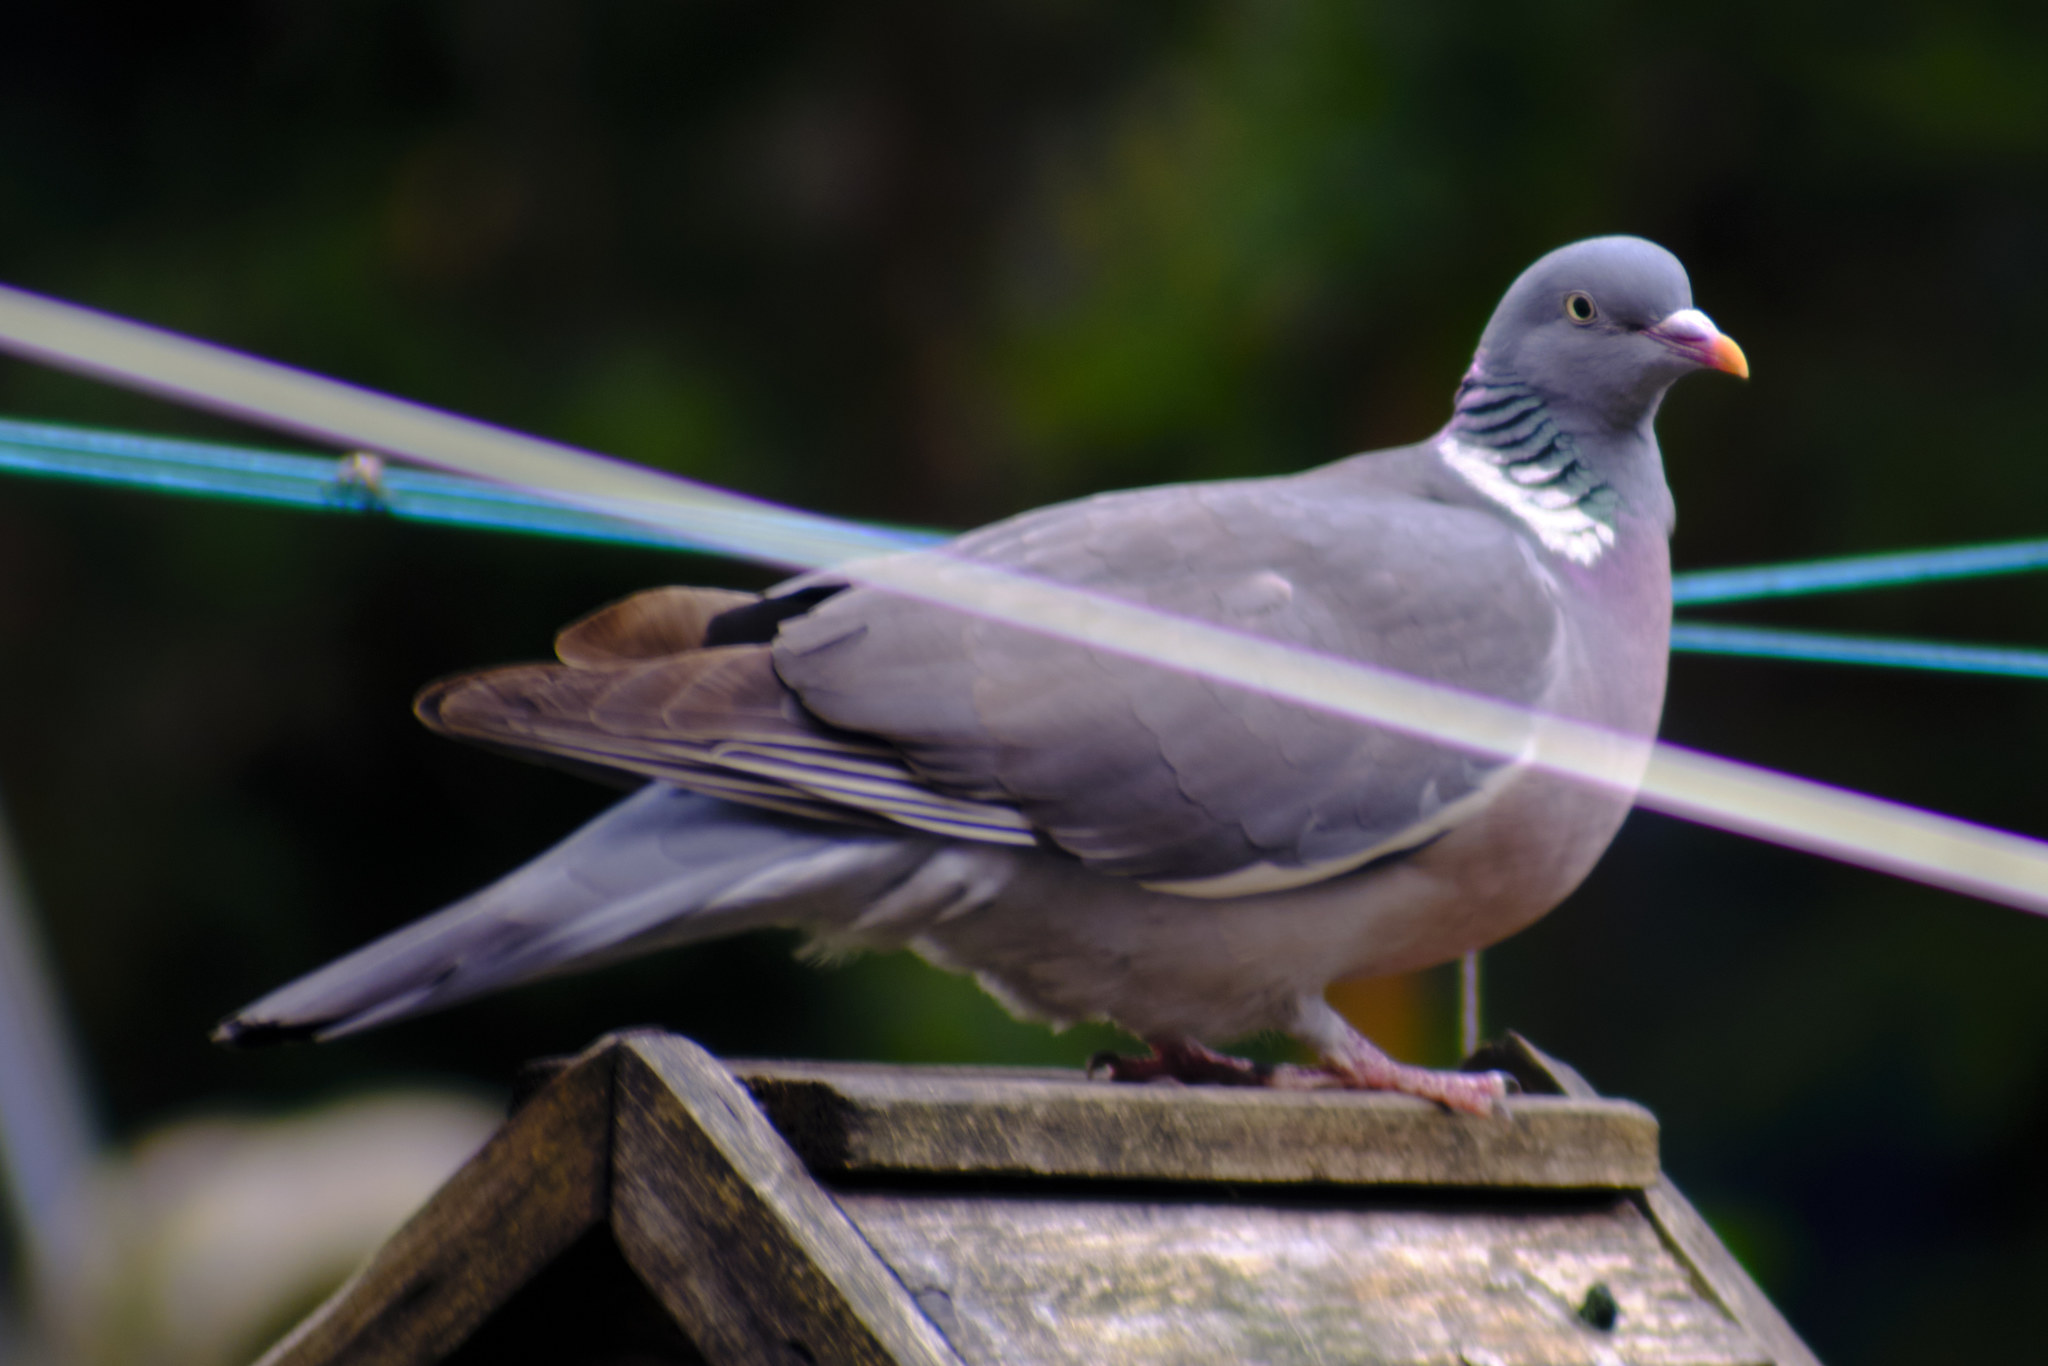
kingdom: Animalia
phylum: Chordata
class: Aves
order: Columbiformes
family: Columbidae
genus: Columba
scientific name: Columba palumbus
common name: Common wood pigeon
